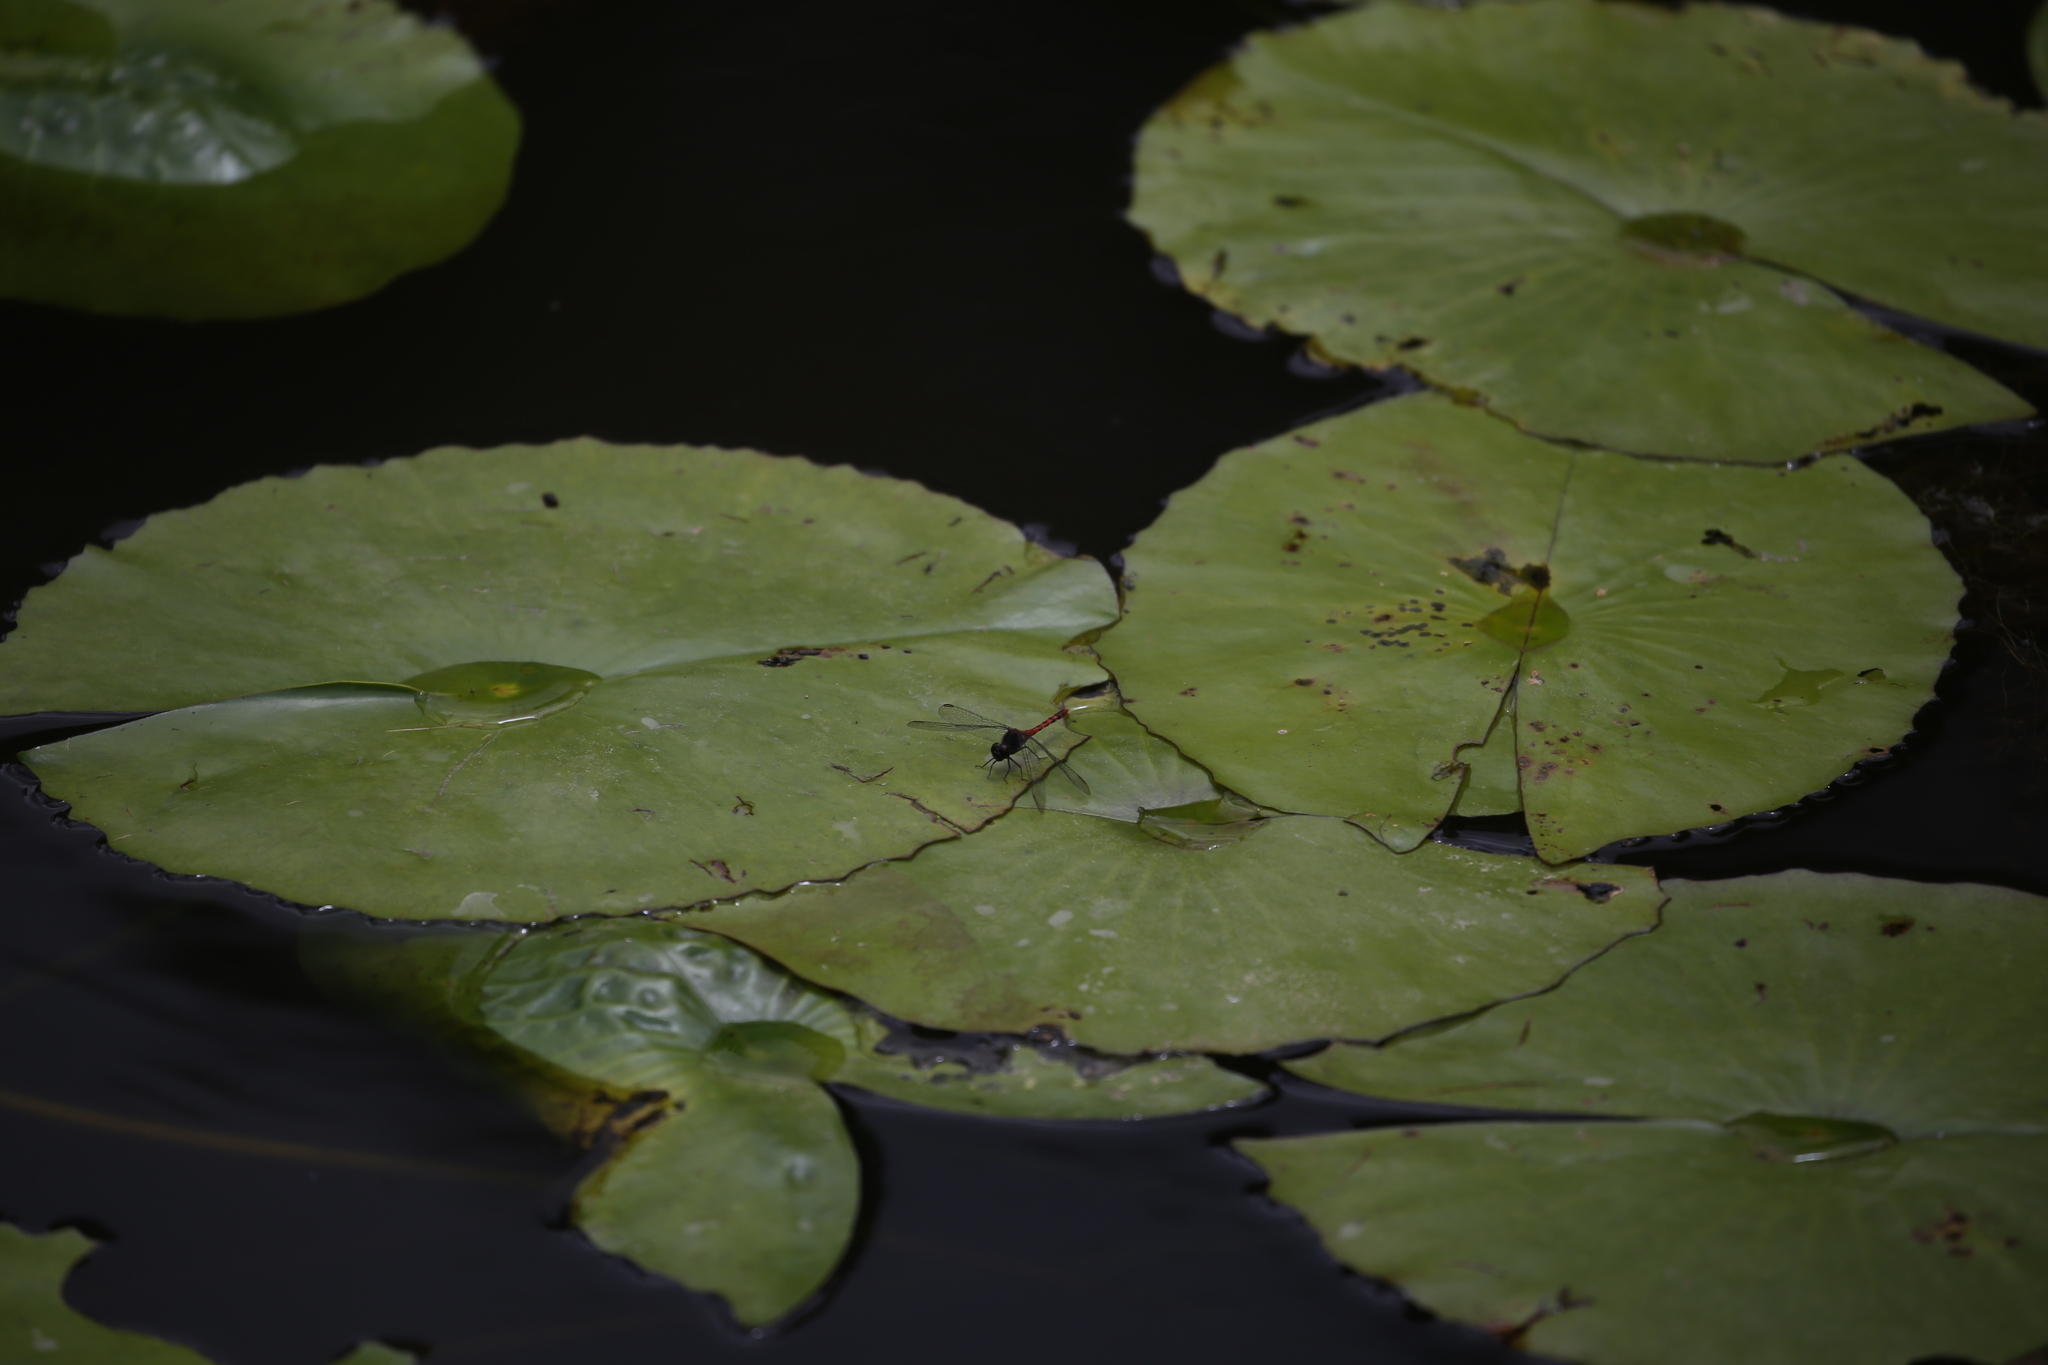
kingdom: Animalia
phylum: Arthropoda
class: Insecta
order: Odonata
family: Libellulidae
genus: Diplacodes
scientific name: Diplacodes melanopsis
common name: Black-faced percher
